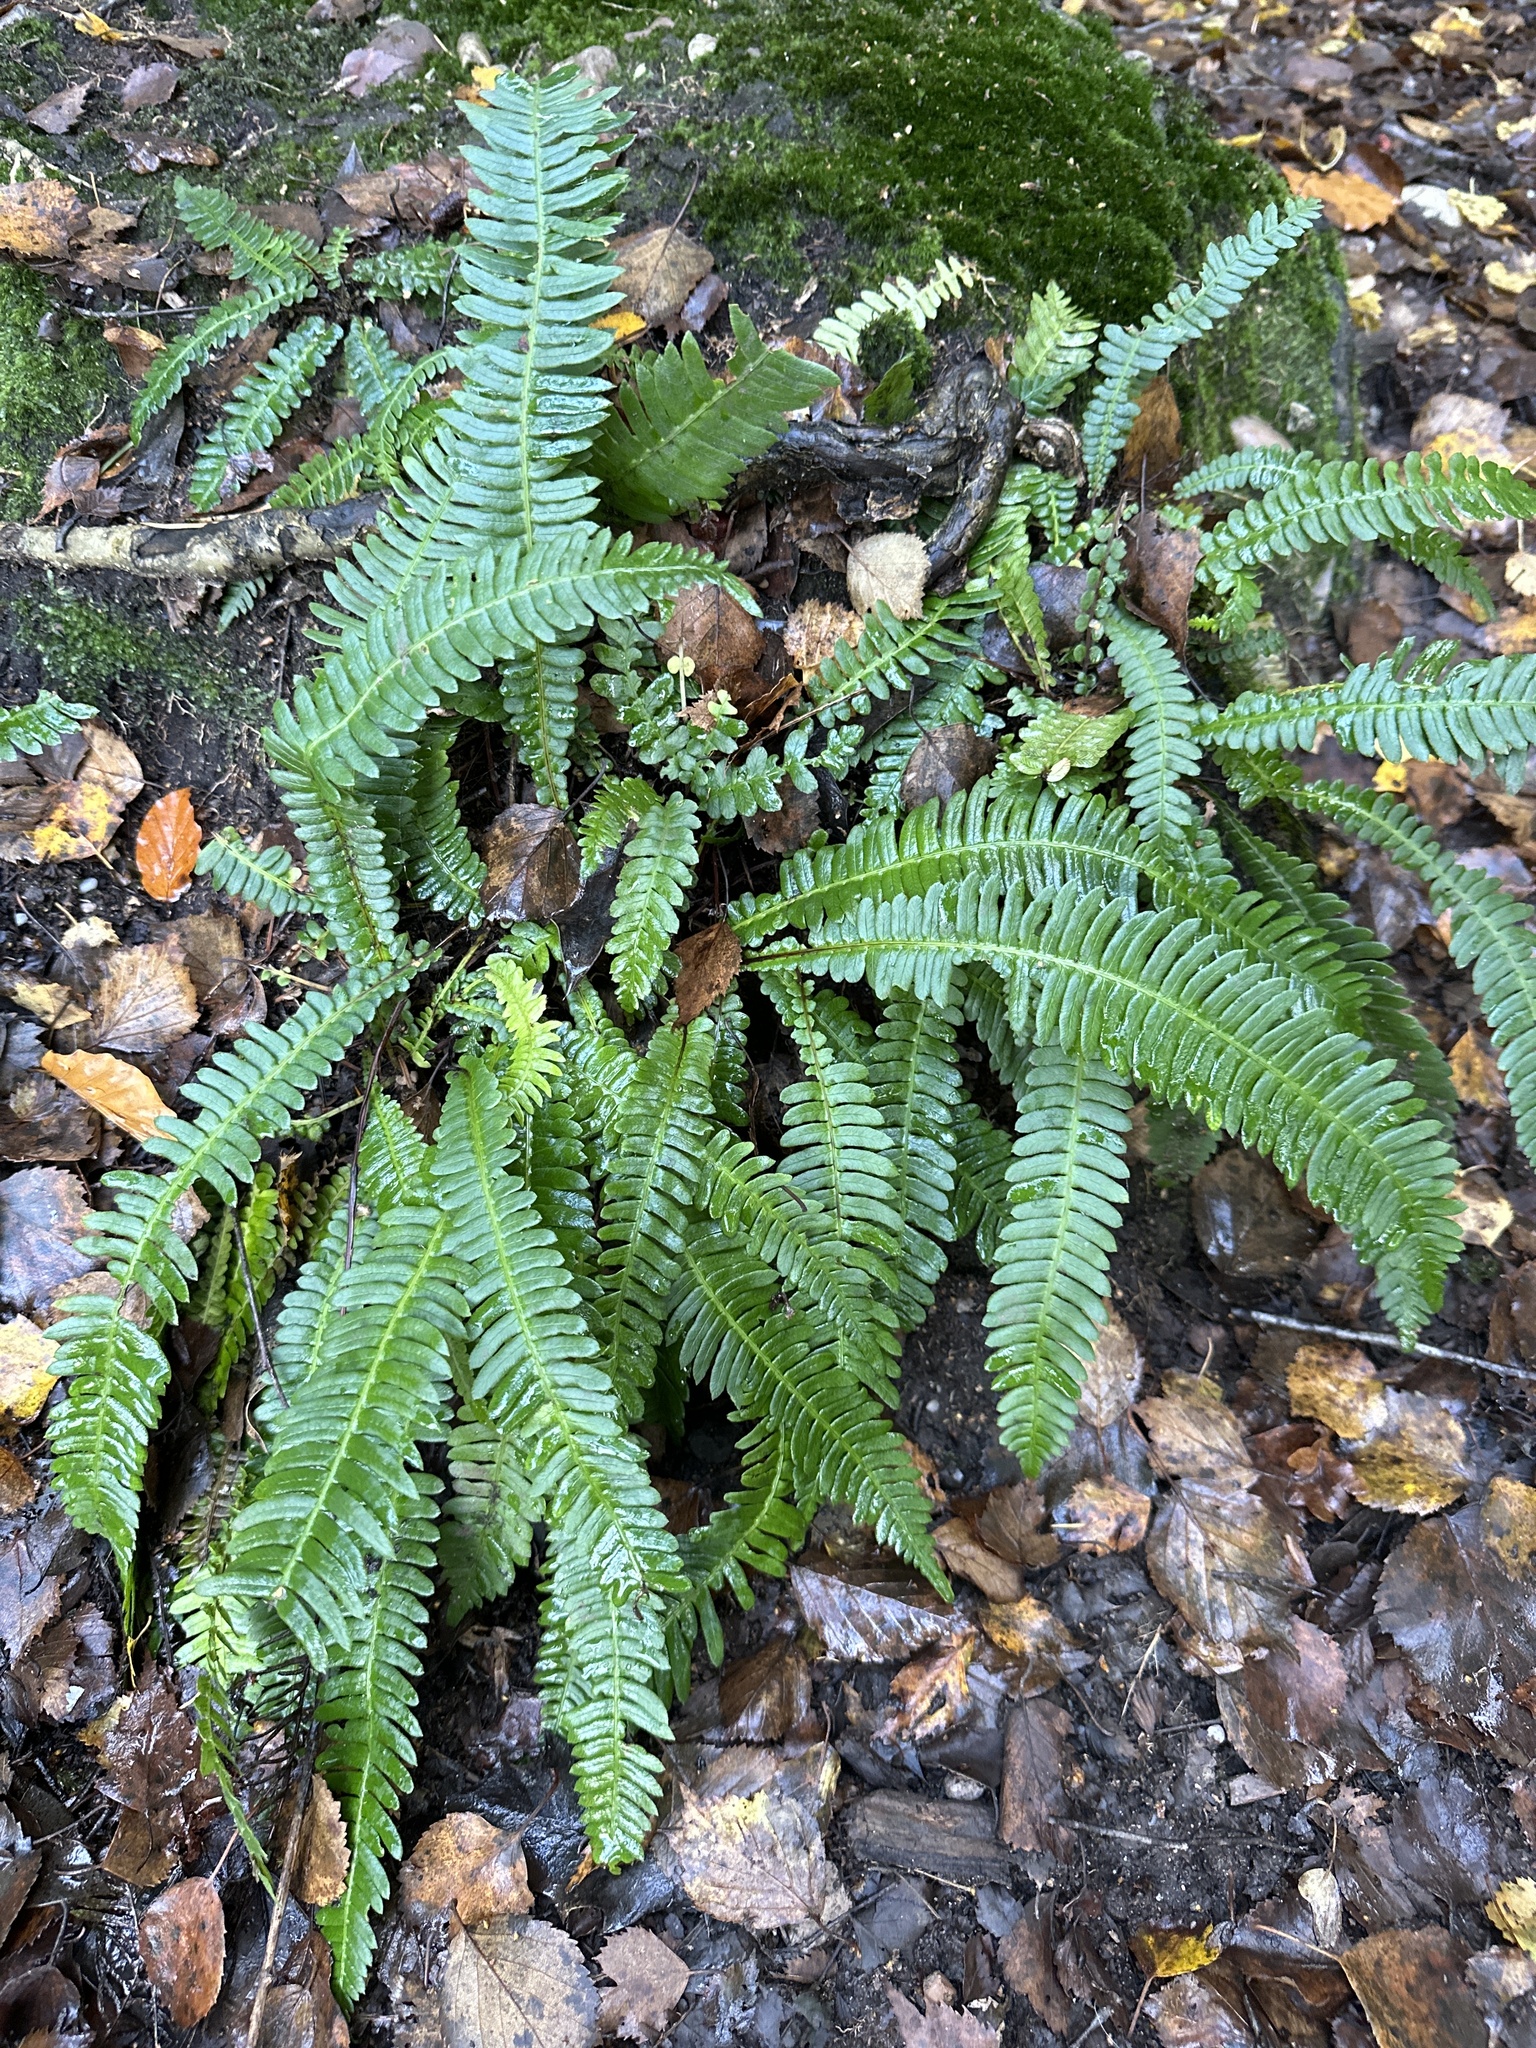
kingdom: Plantae
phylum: Tracheophyta
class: Polypodiopsida
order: Polypodiales
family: Blechnaceae
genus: Struthiopteris
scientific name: Struthiopteris spicant
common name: Deer fern
